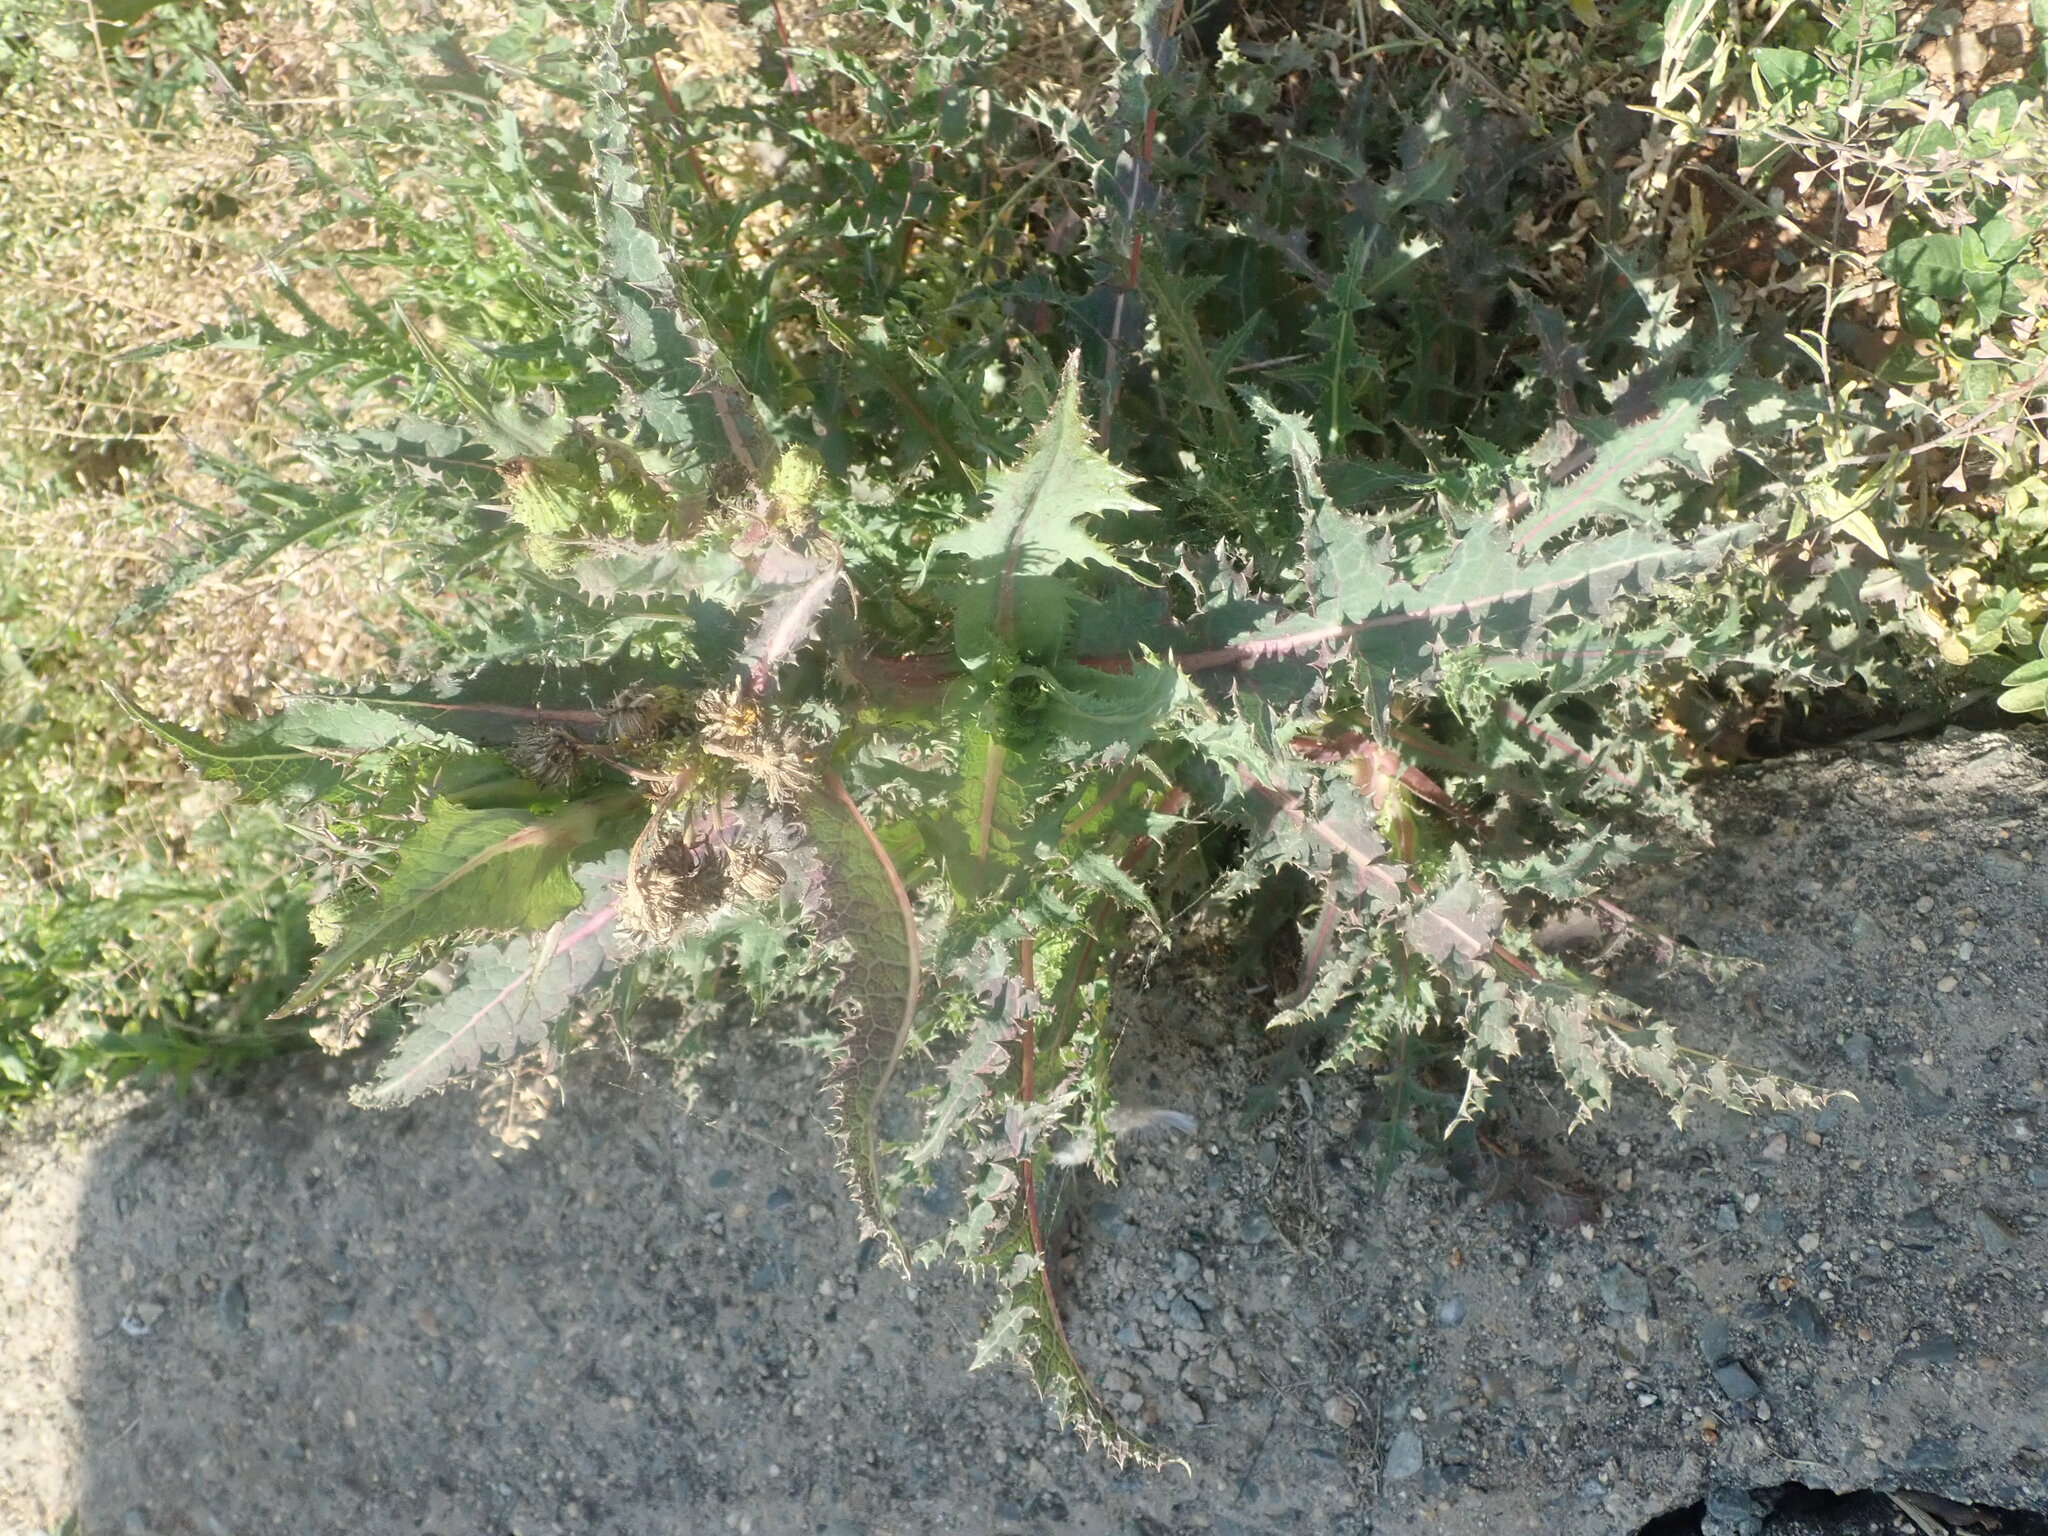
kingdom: Plantae
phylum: Tracheophyta
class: Magnoliopsida
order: Asterales
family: Asteraceae
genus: Sonchus
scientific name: Sonchus asper
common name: Prickly sow-thistle
